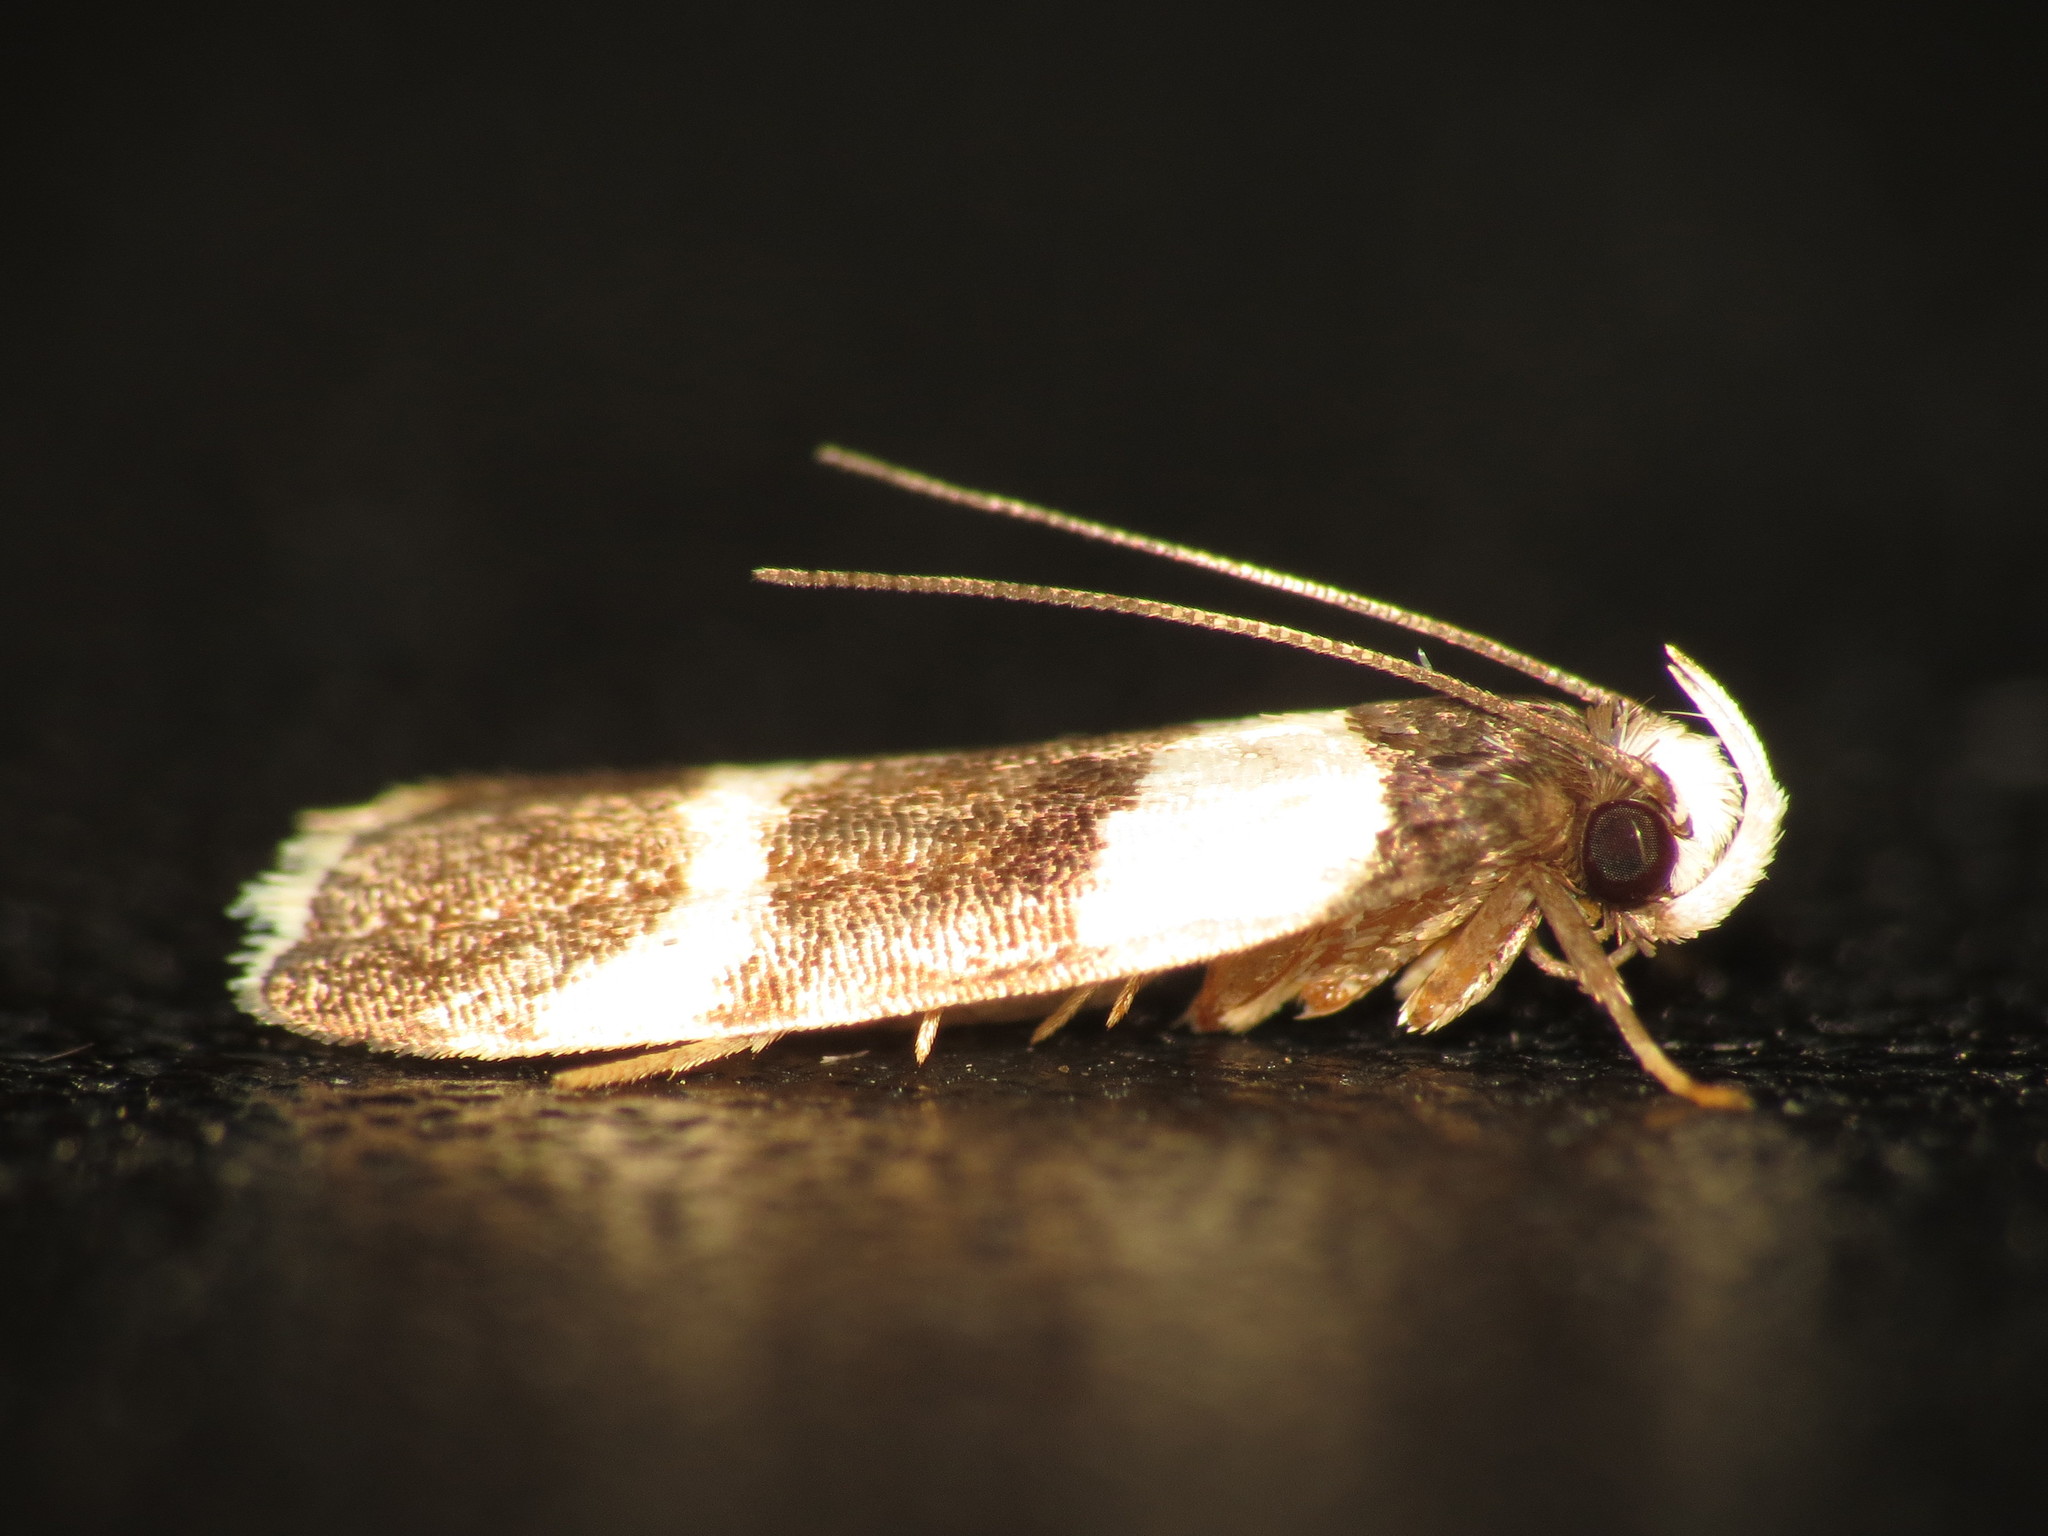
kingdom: Animalia
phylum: Arthropoda
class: Insecta
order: Lepidoptera
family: Gelechiidae
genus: Ardozyga
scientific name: Ardozyga tetraploa
